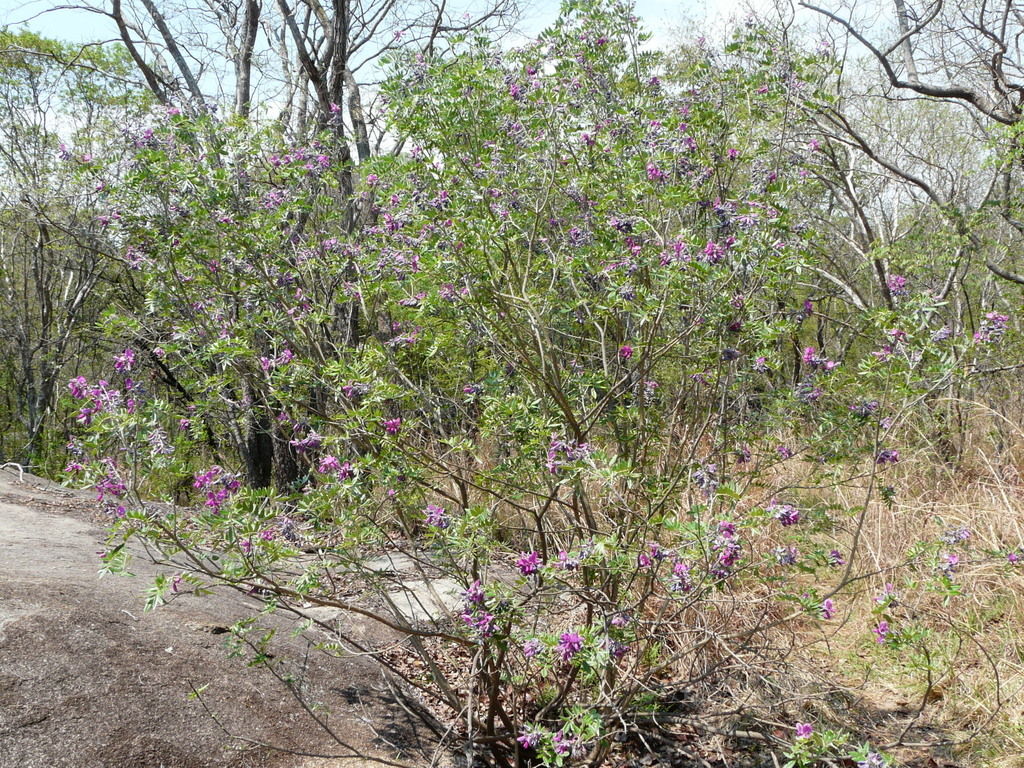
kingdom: Plantae
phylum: Tracheophyta
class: Magnoliopsida
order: Fabales
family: Fabaceae
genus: Mundulea
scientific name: Mundulea sericea
